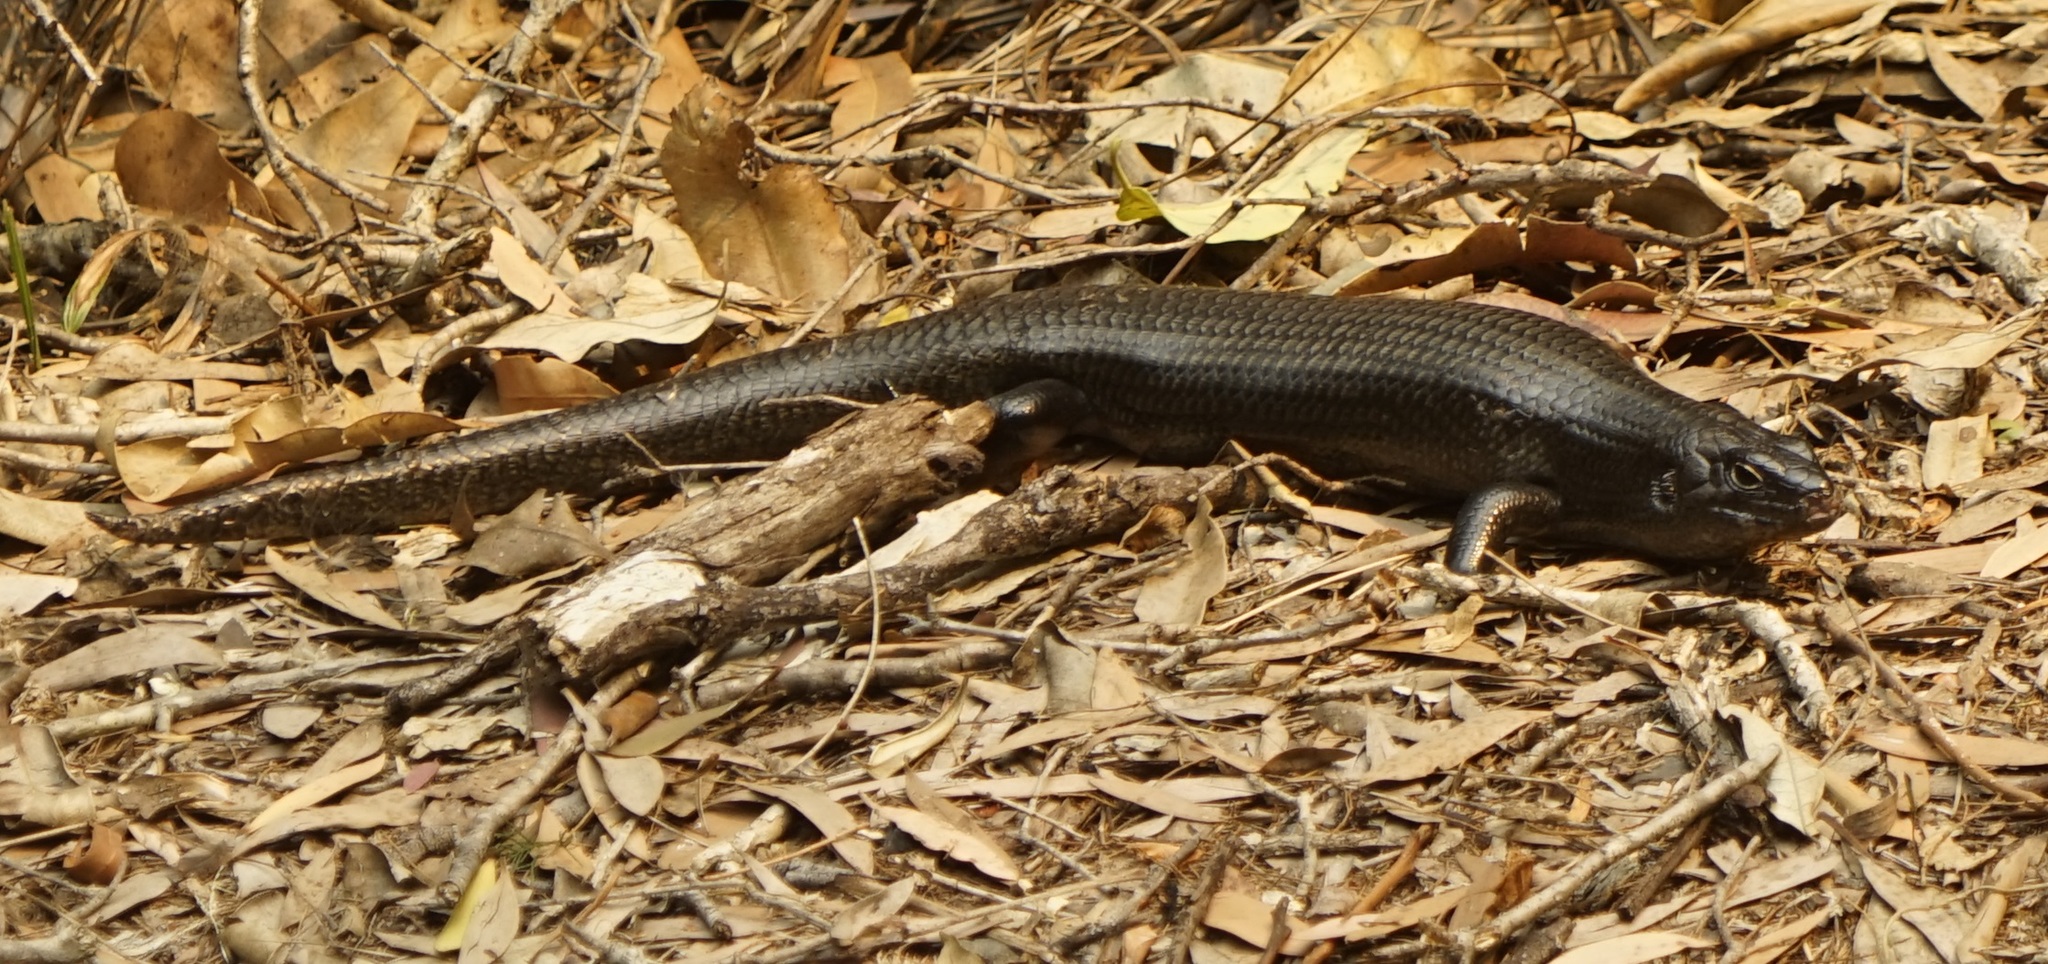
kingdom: Animalia
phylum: Chordata
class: Squamata
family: Scincidae
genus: Bellatorias
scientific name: Bellatorias major
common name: Land mullet
